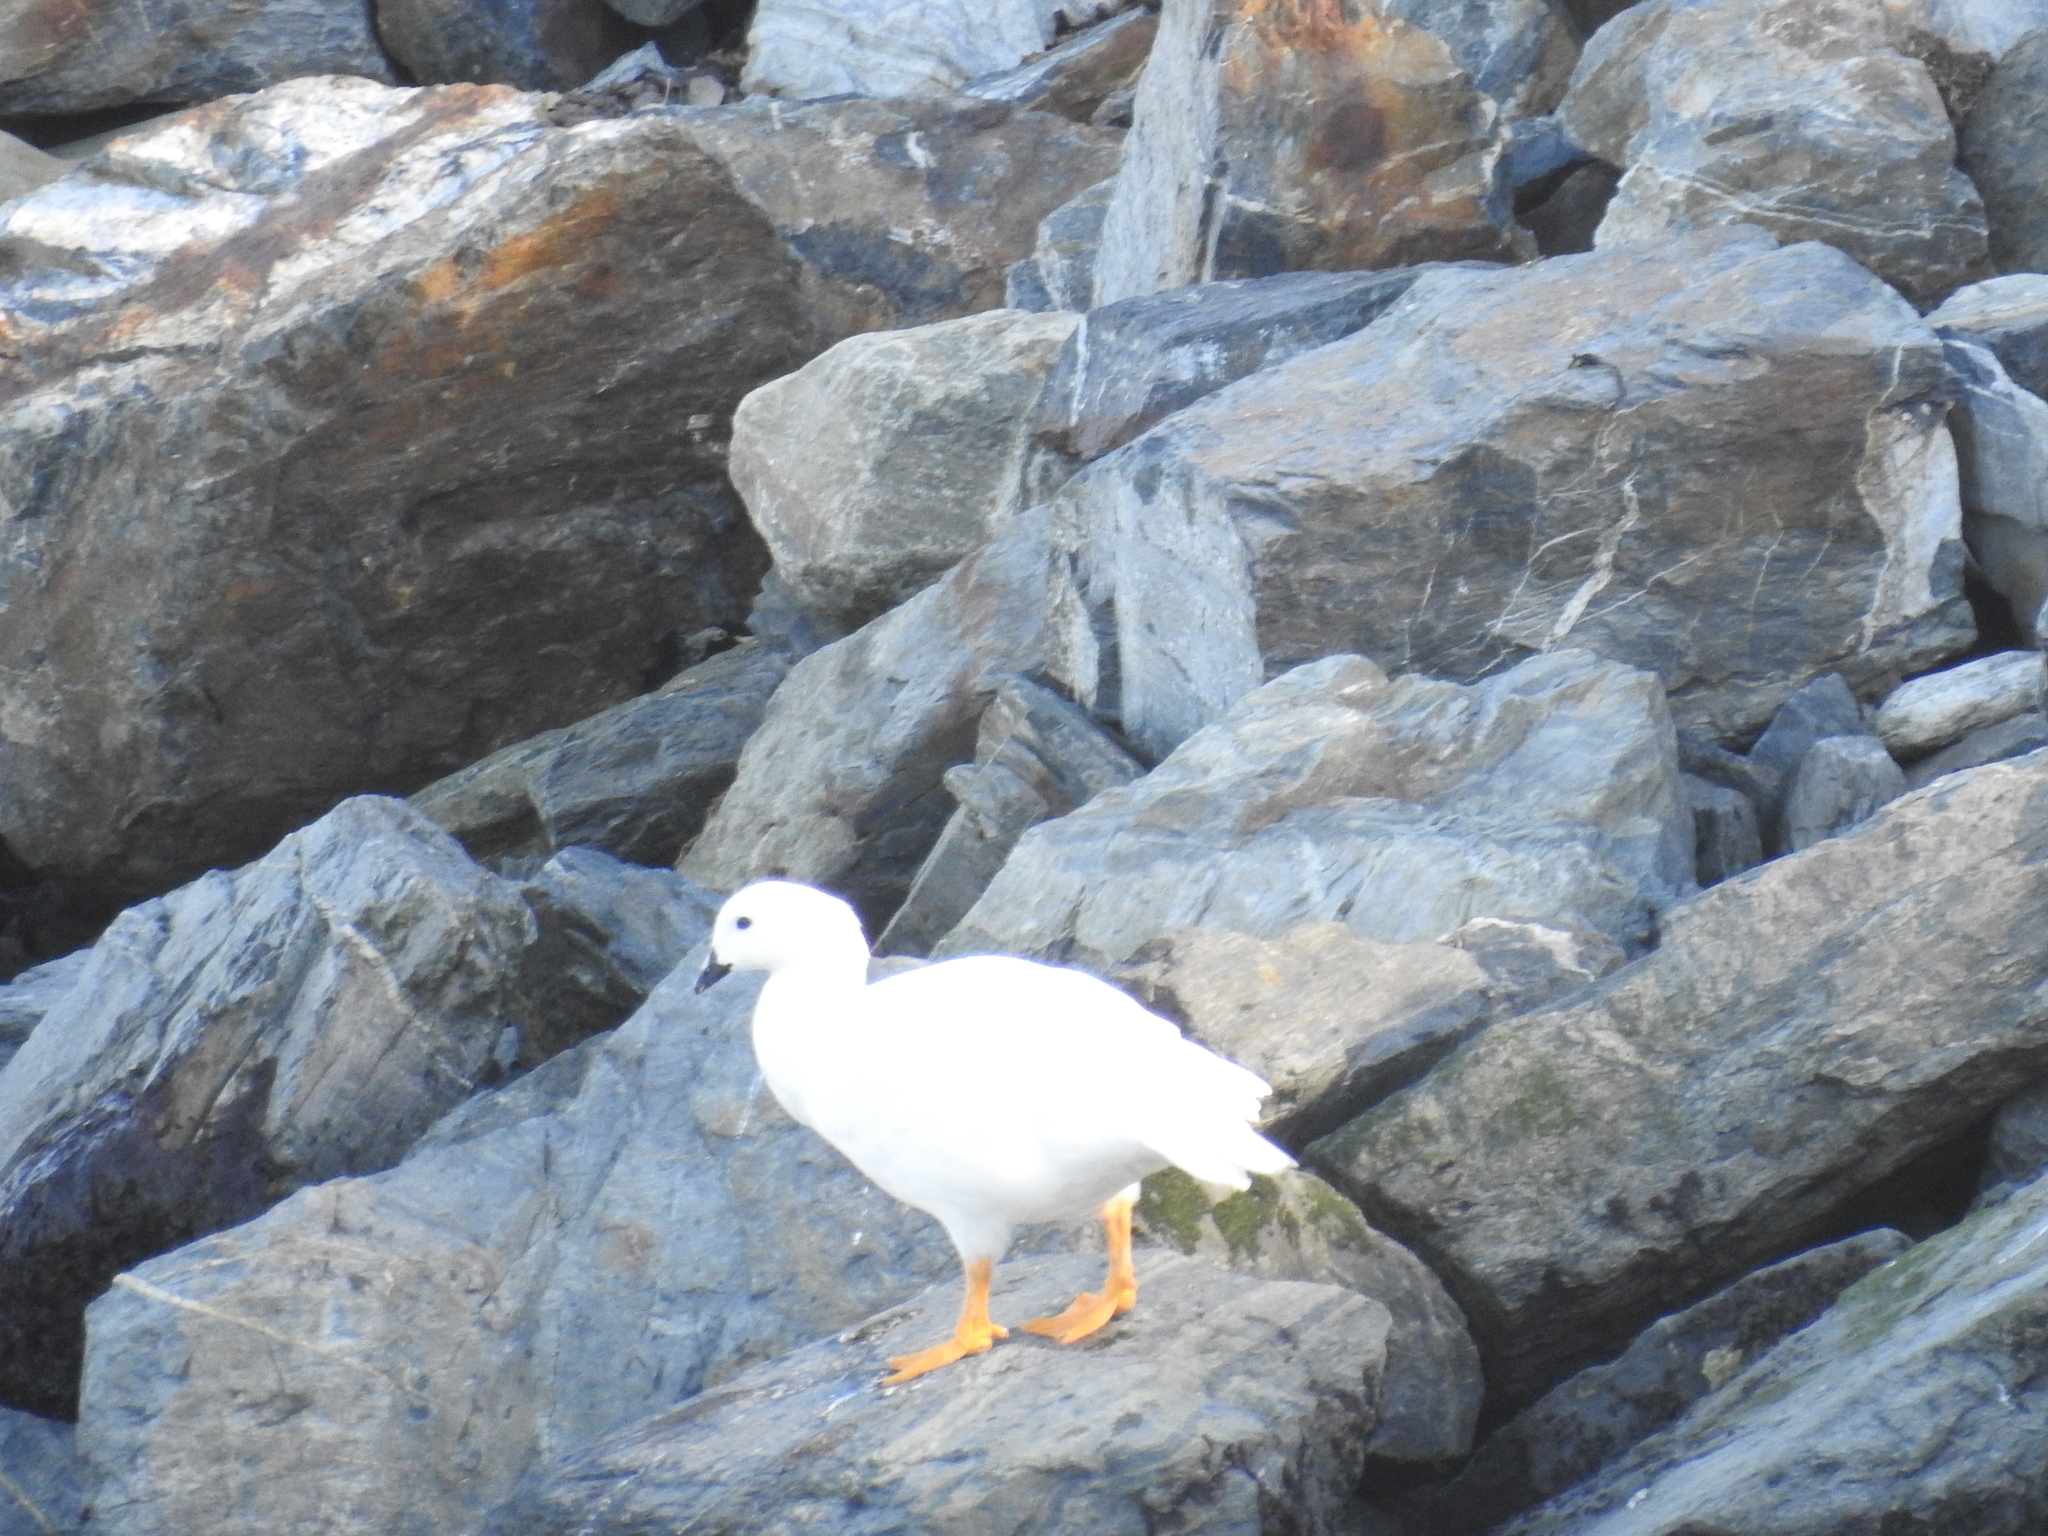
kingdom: Animalia
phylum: Chordata
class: Aves
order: Anseriformes
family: Anatidae
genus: Chloephaga
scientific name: Chloephaga hybrida
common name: Kelp goose
